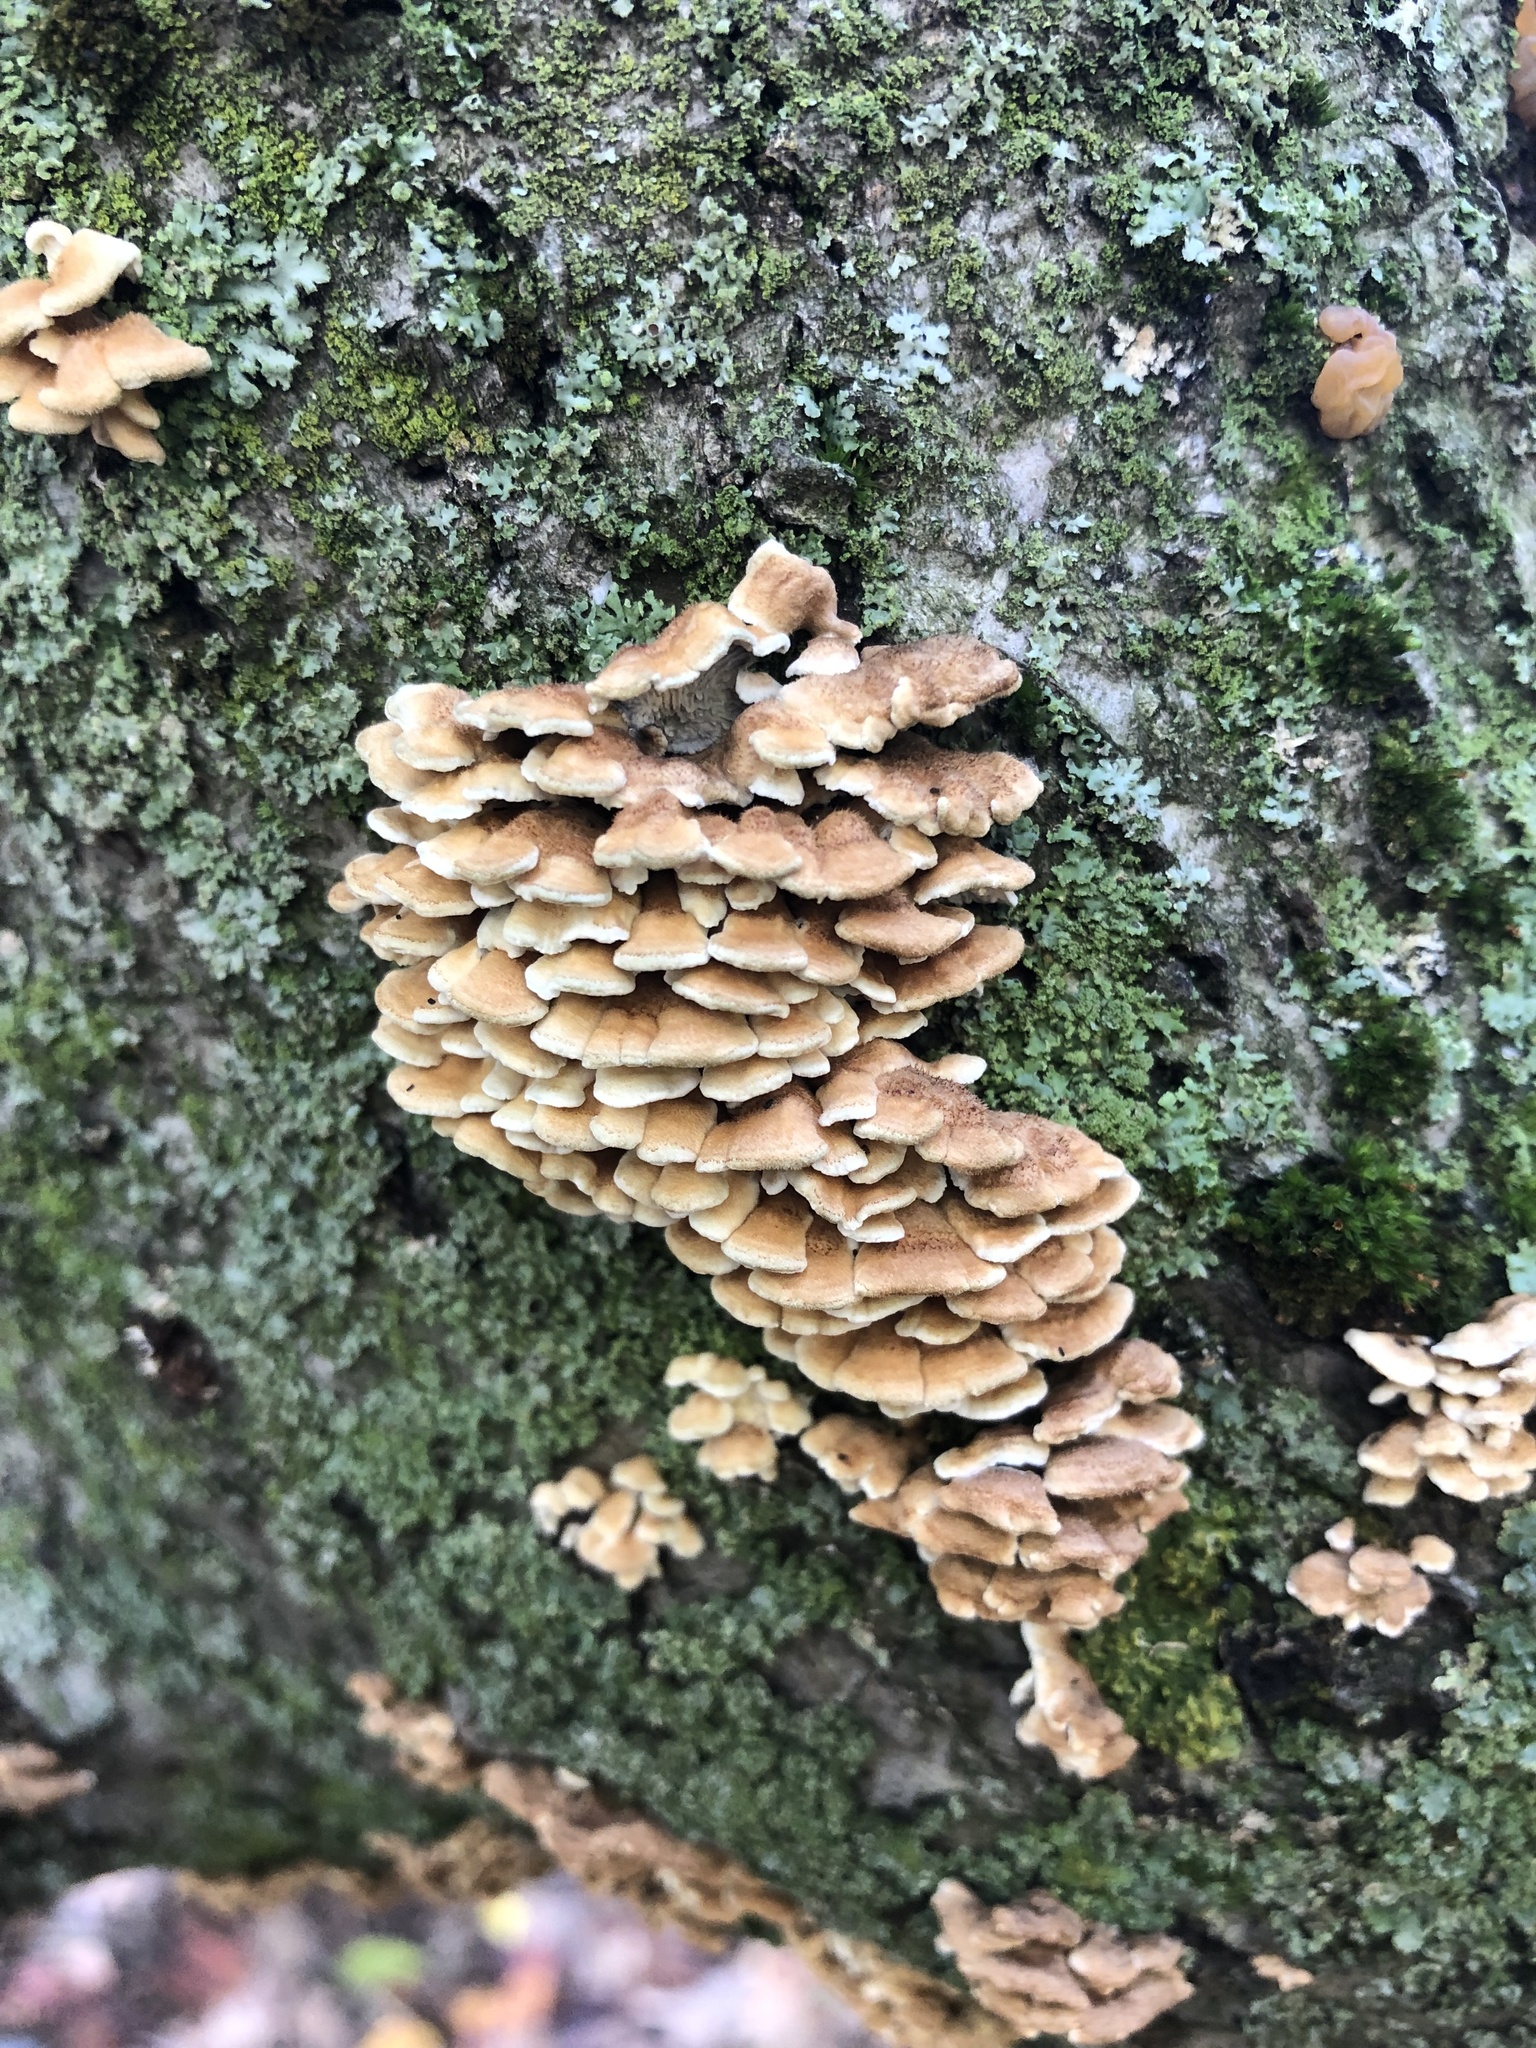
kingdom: Fungi
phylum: Basidiomycota
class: Agaricomycetes
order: Amylocorticiales
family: Amylocorticiaceae
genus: Plicaturopsis
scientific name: Plicaturopsis crispa
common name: Crimped gill
